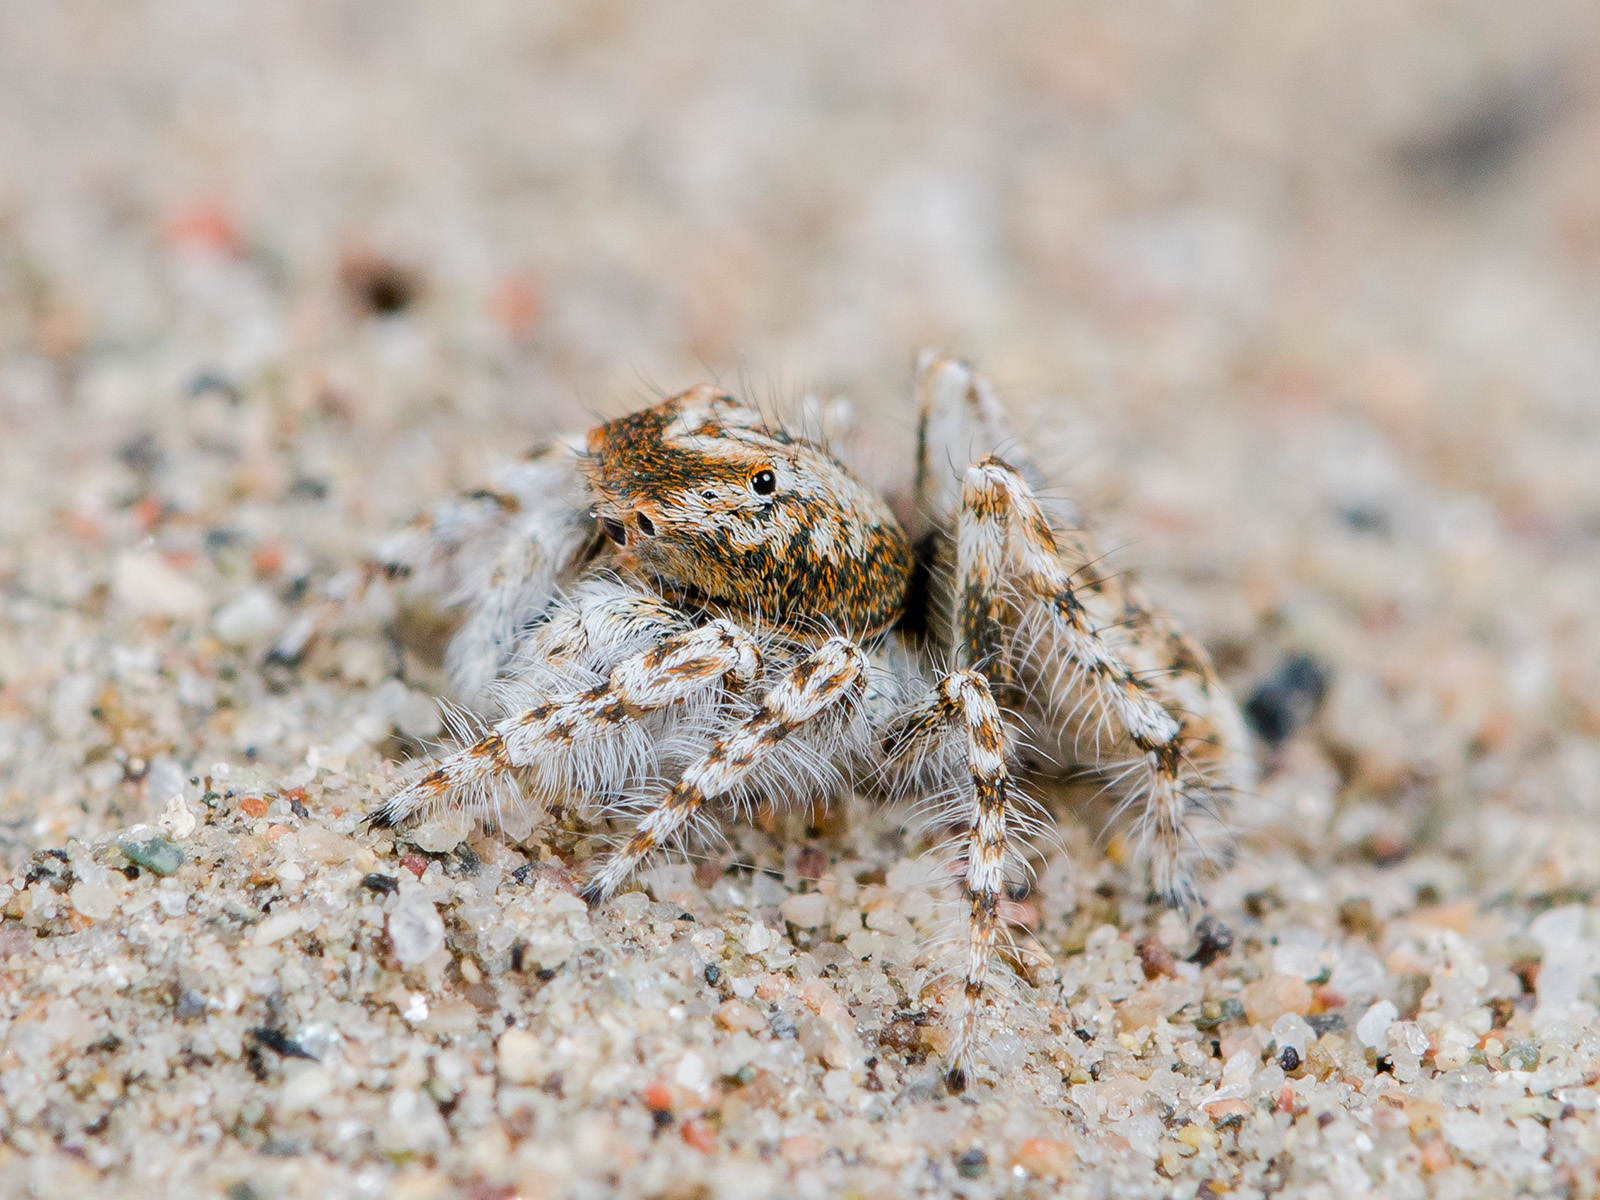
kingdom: Animalia
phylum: Arthropoda
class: Arachnida
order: Araneae
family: Salticidae
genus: Yllenus
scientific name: Yllenus uiguricus
